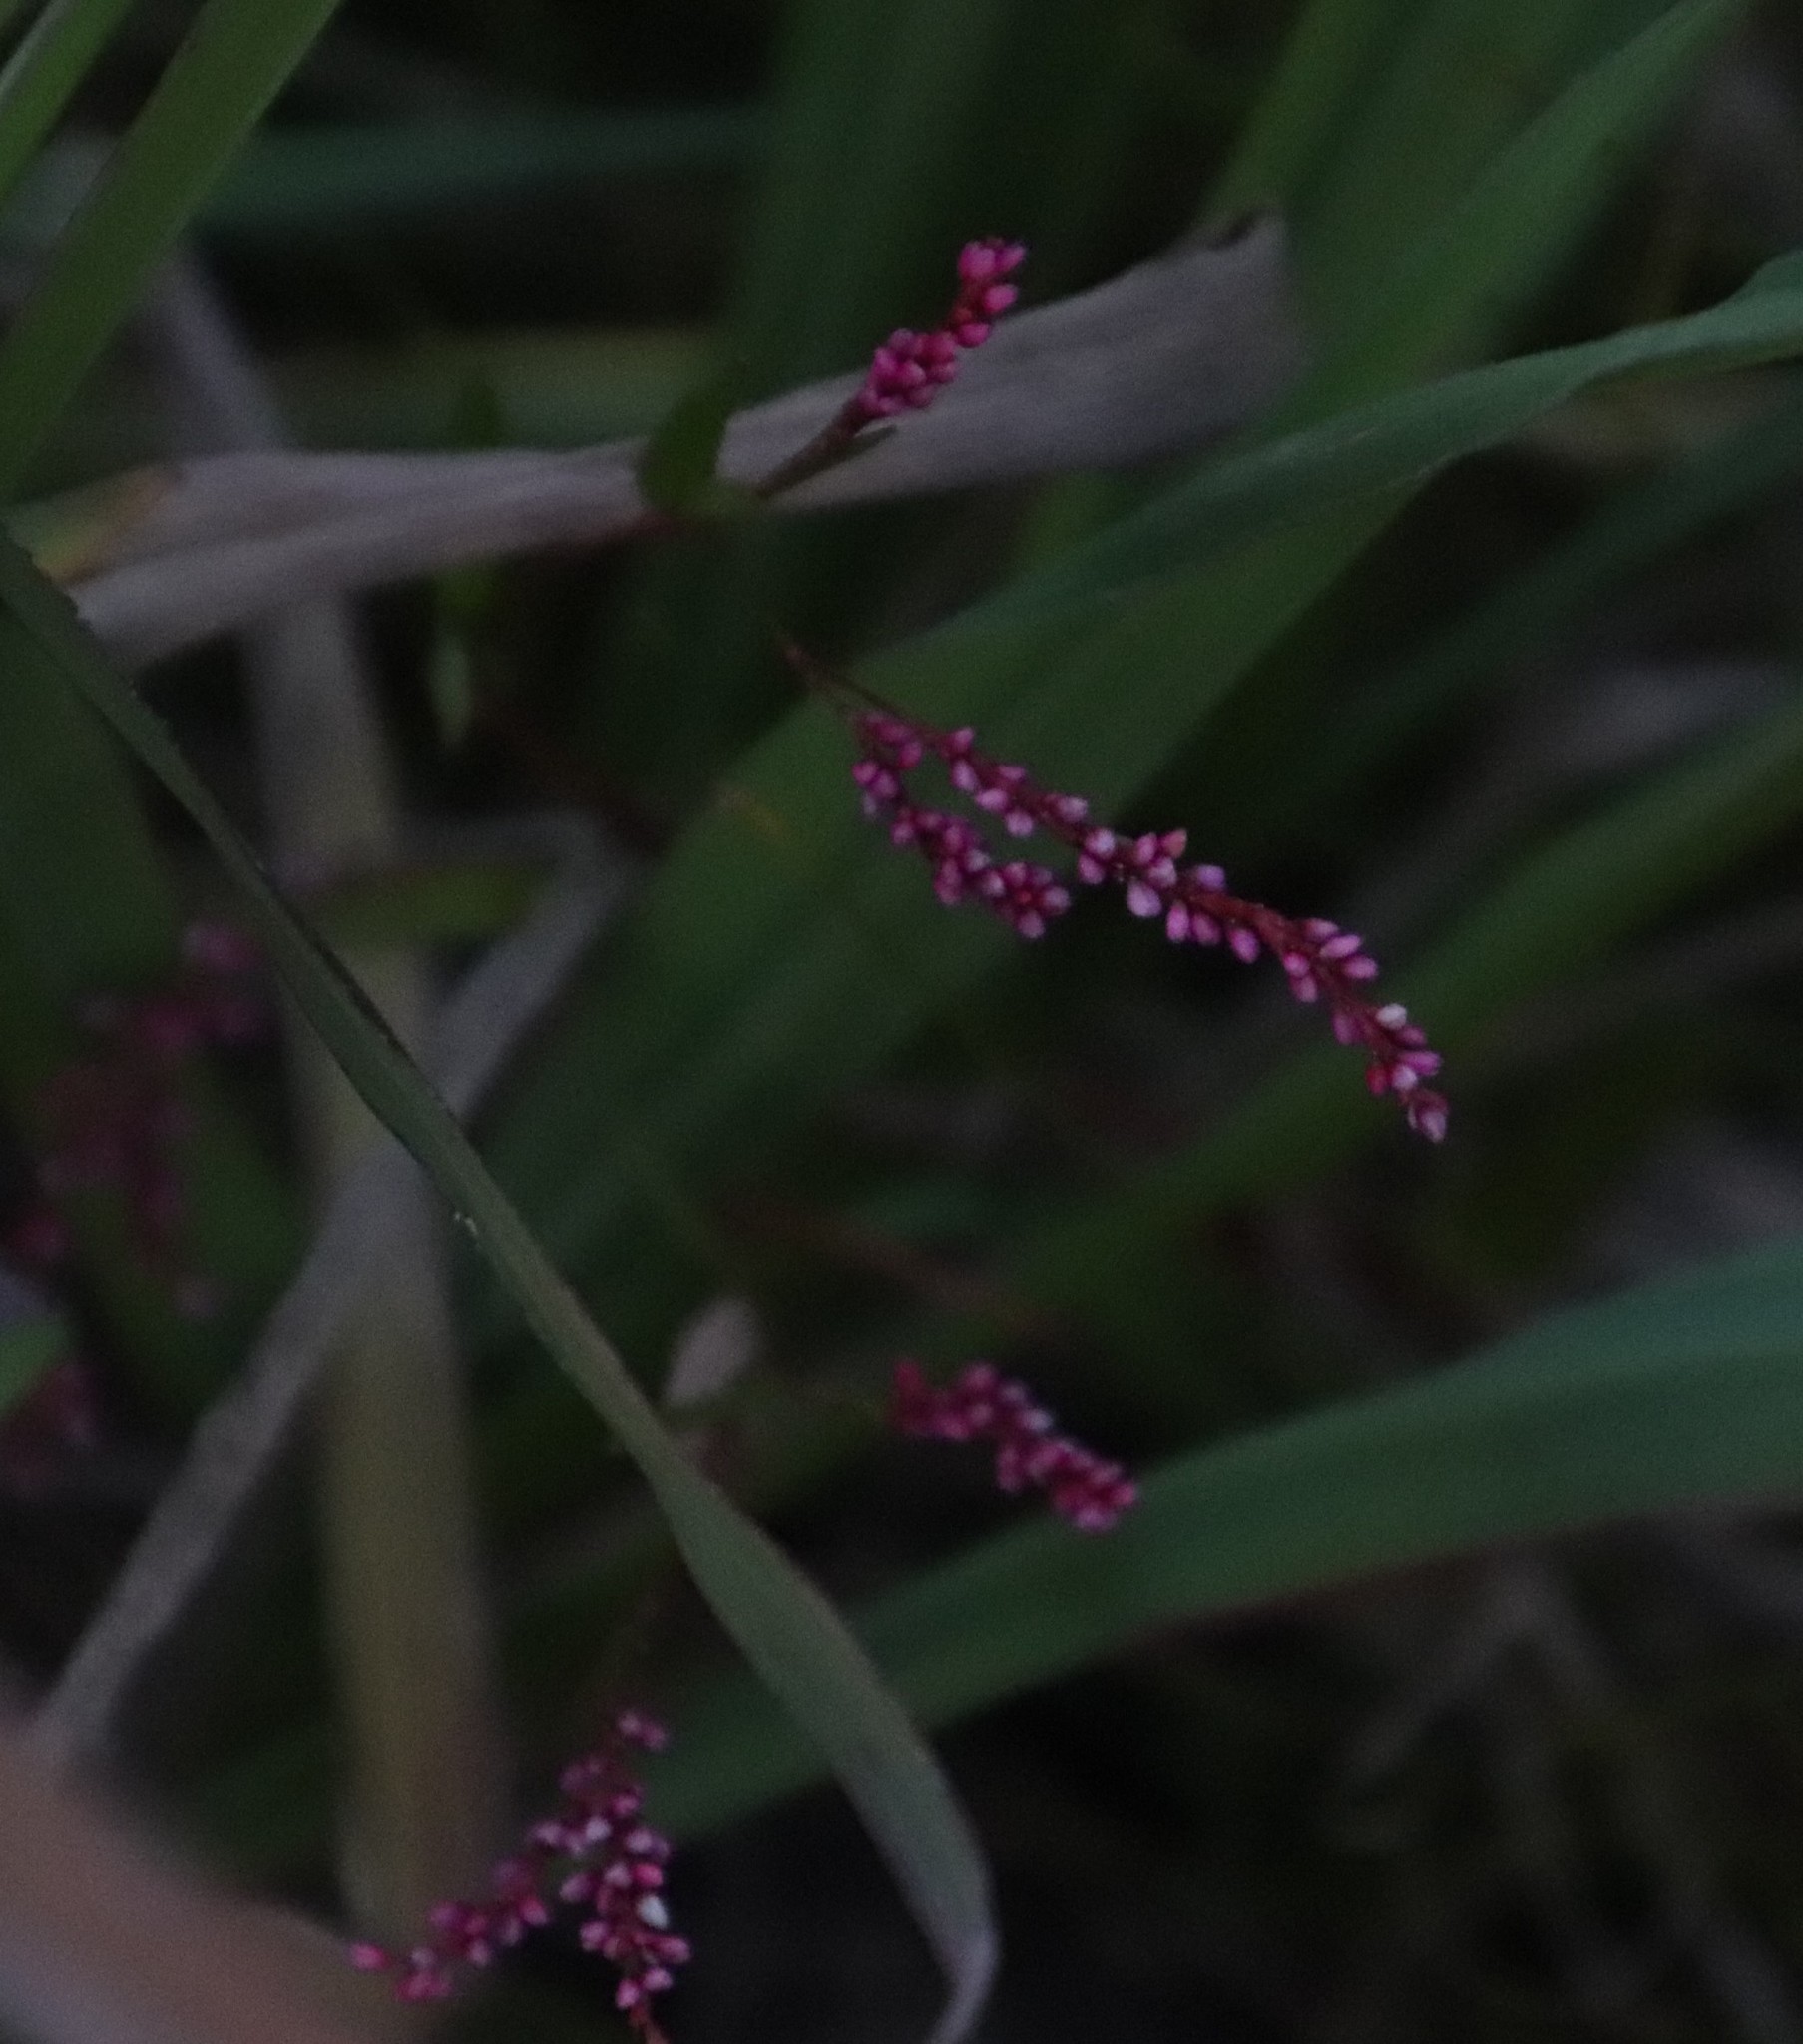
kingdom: Plantae
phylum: Tracheophyta
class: Magnoliopsida
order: Caryophyllales
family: Polygonaceae
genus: Persicaria
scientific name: Persicaria decipiens
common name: Willow-weed
